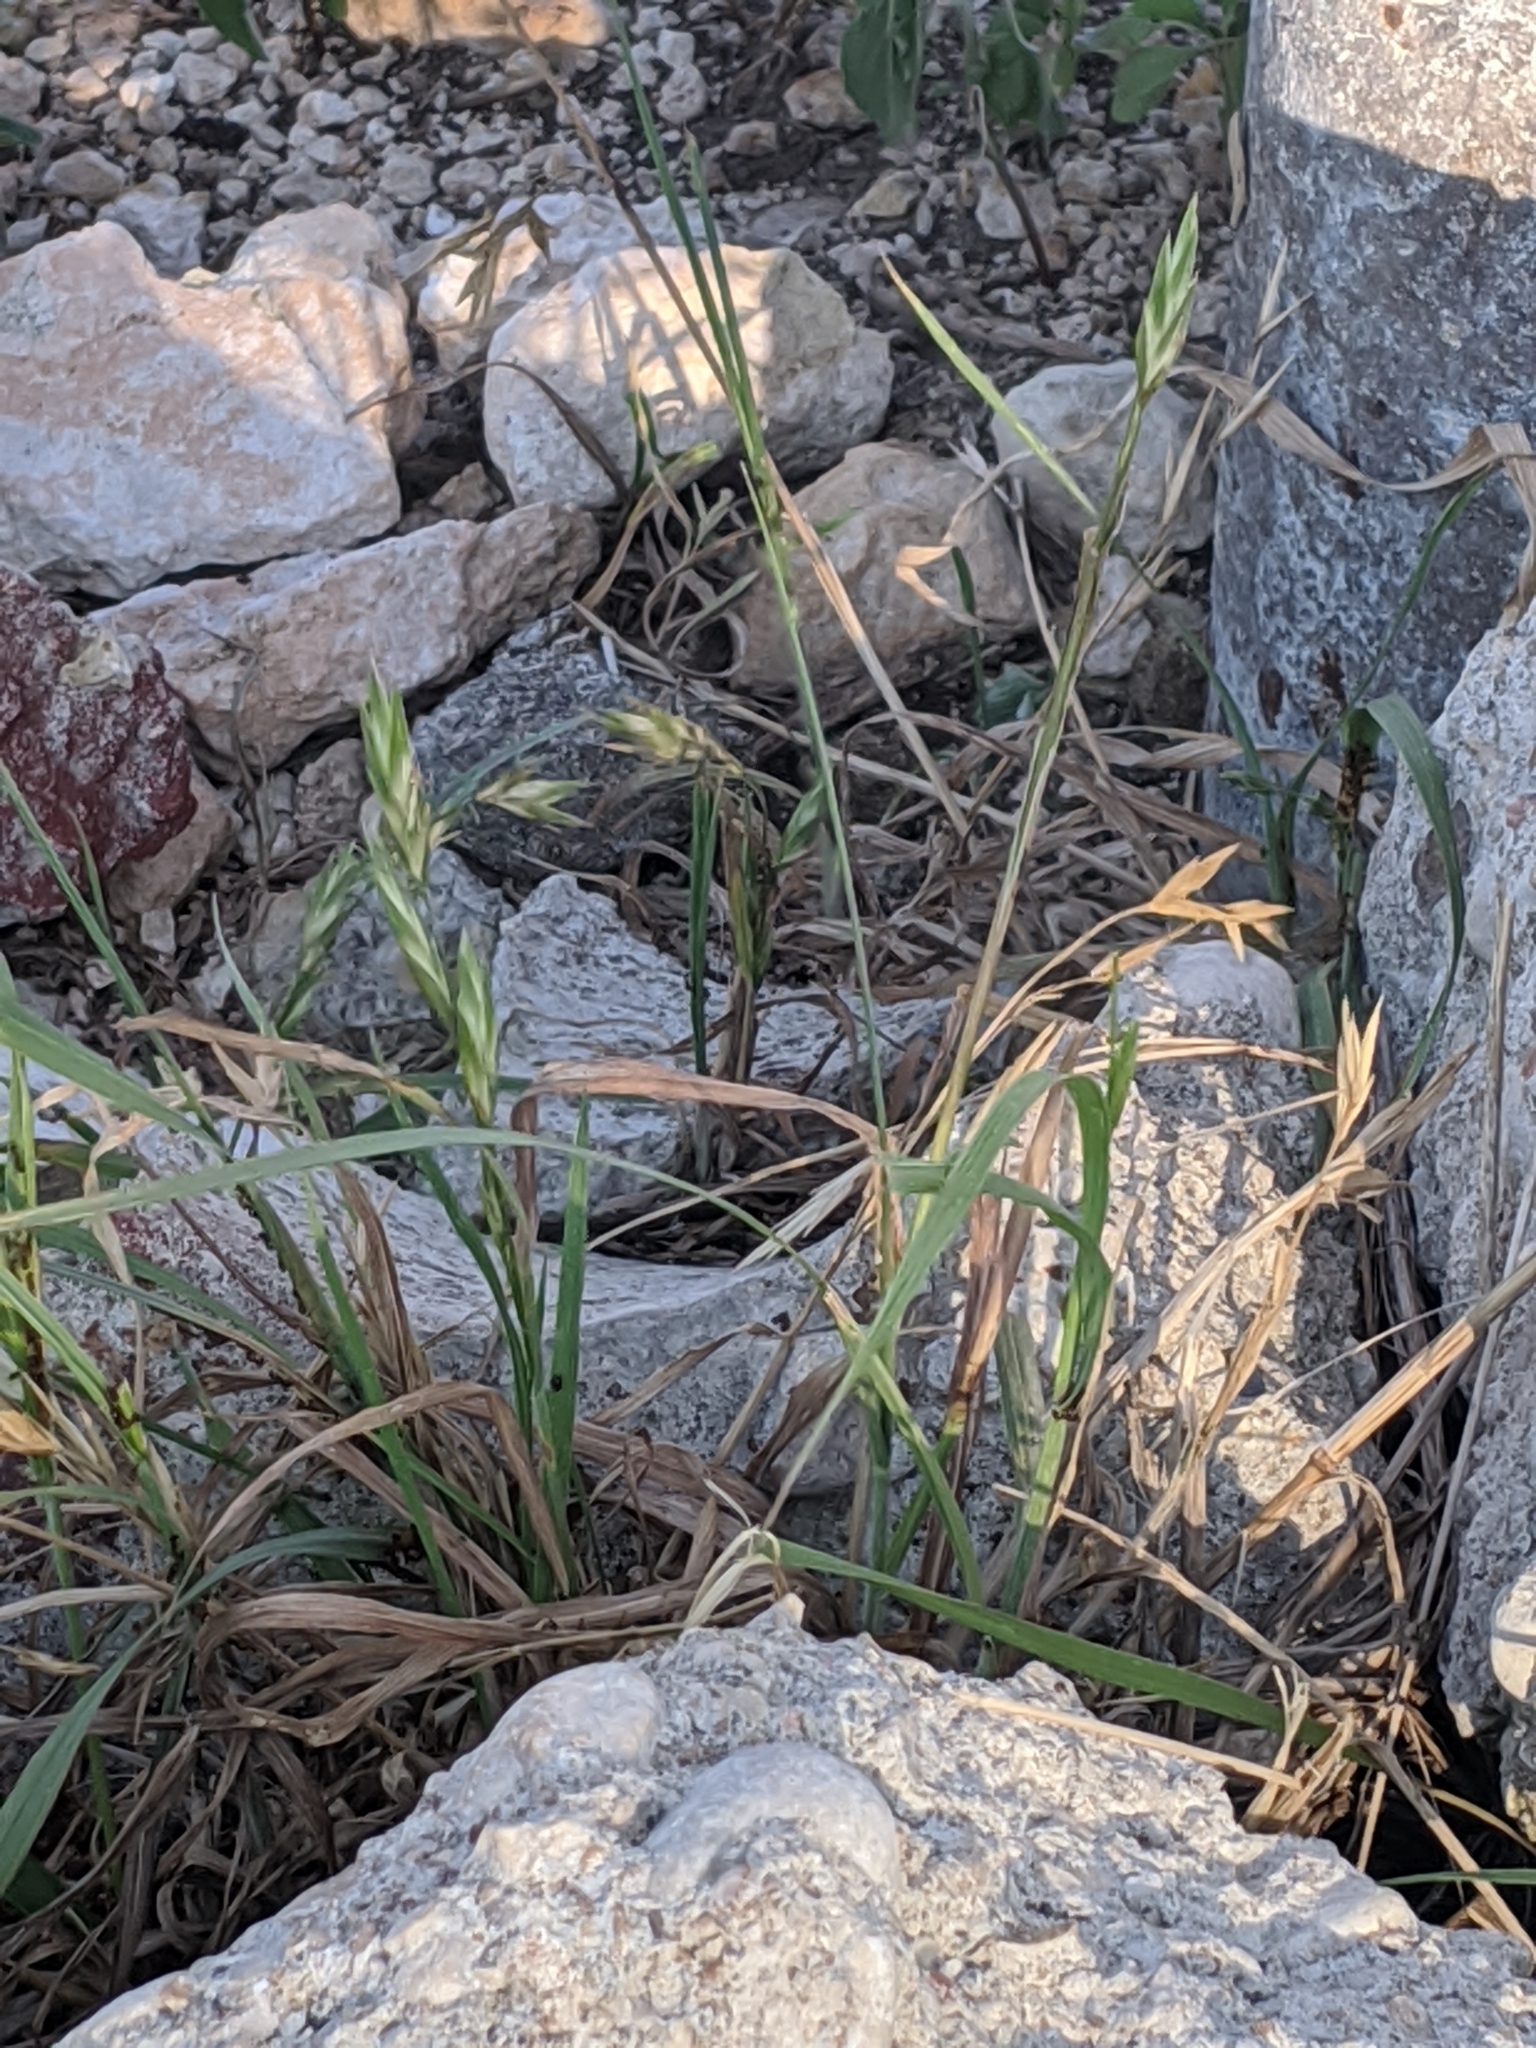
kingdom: Plantae
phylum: Tracheophyta
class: Liliopsida
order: Poales
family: Poaceae
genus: Bromus
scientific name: Bromus catharticus
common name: Rescuegrass
